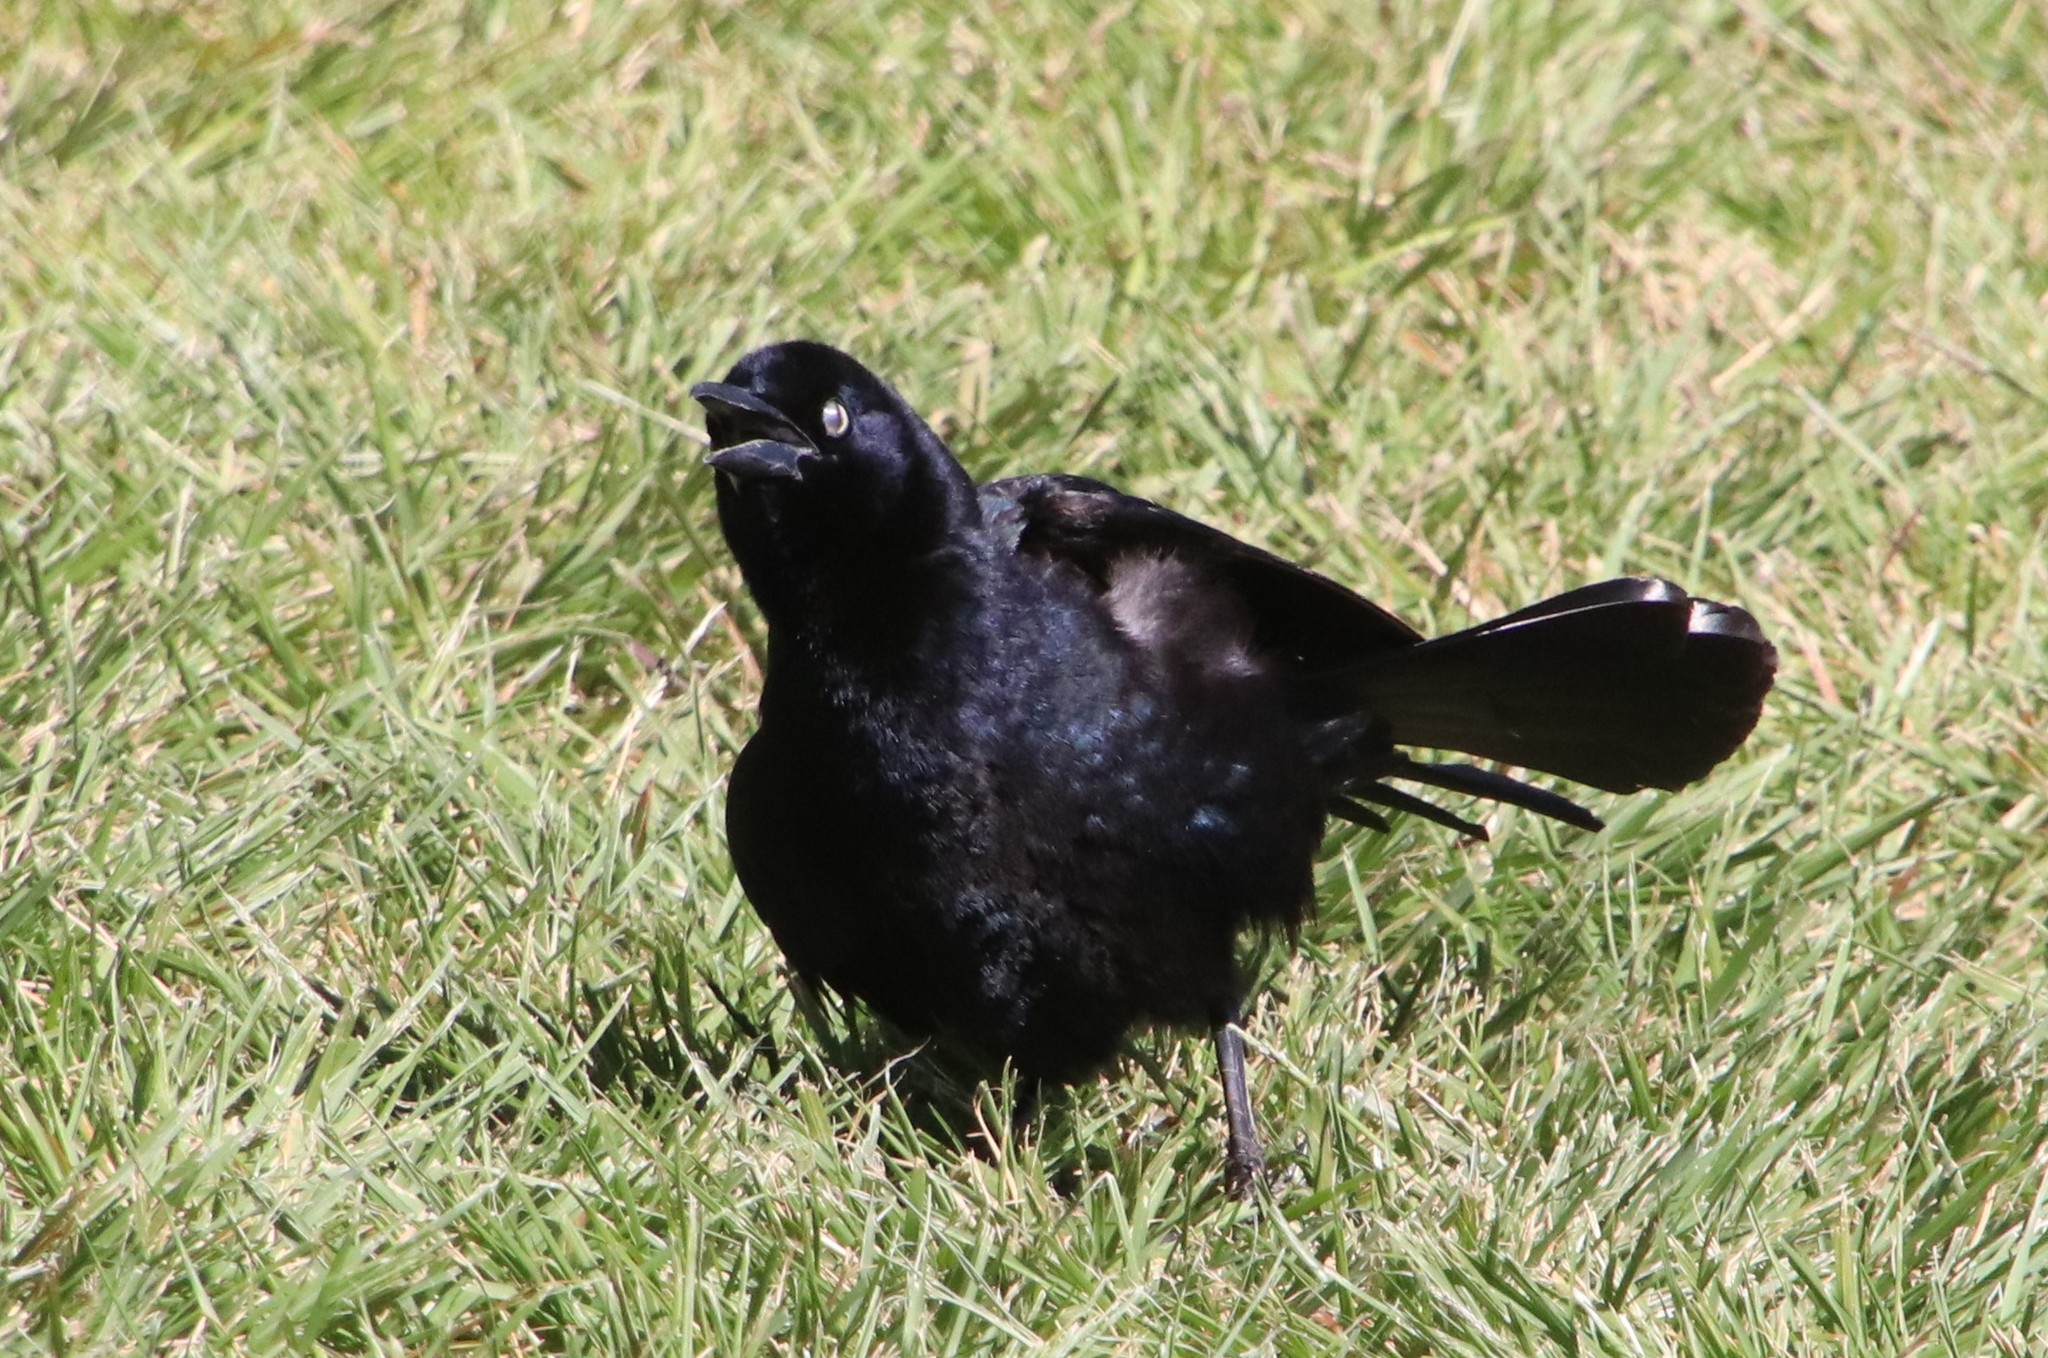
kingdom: Animalia
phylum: Chordata
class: Aves
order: Passeriformes
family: Icteridae
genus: Quiscalus
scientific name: Quiscalus mexicanus
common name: Great-tailed grackle
